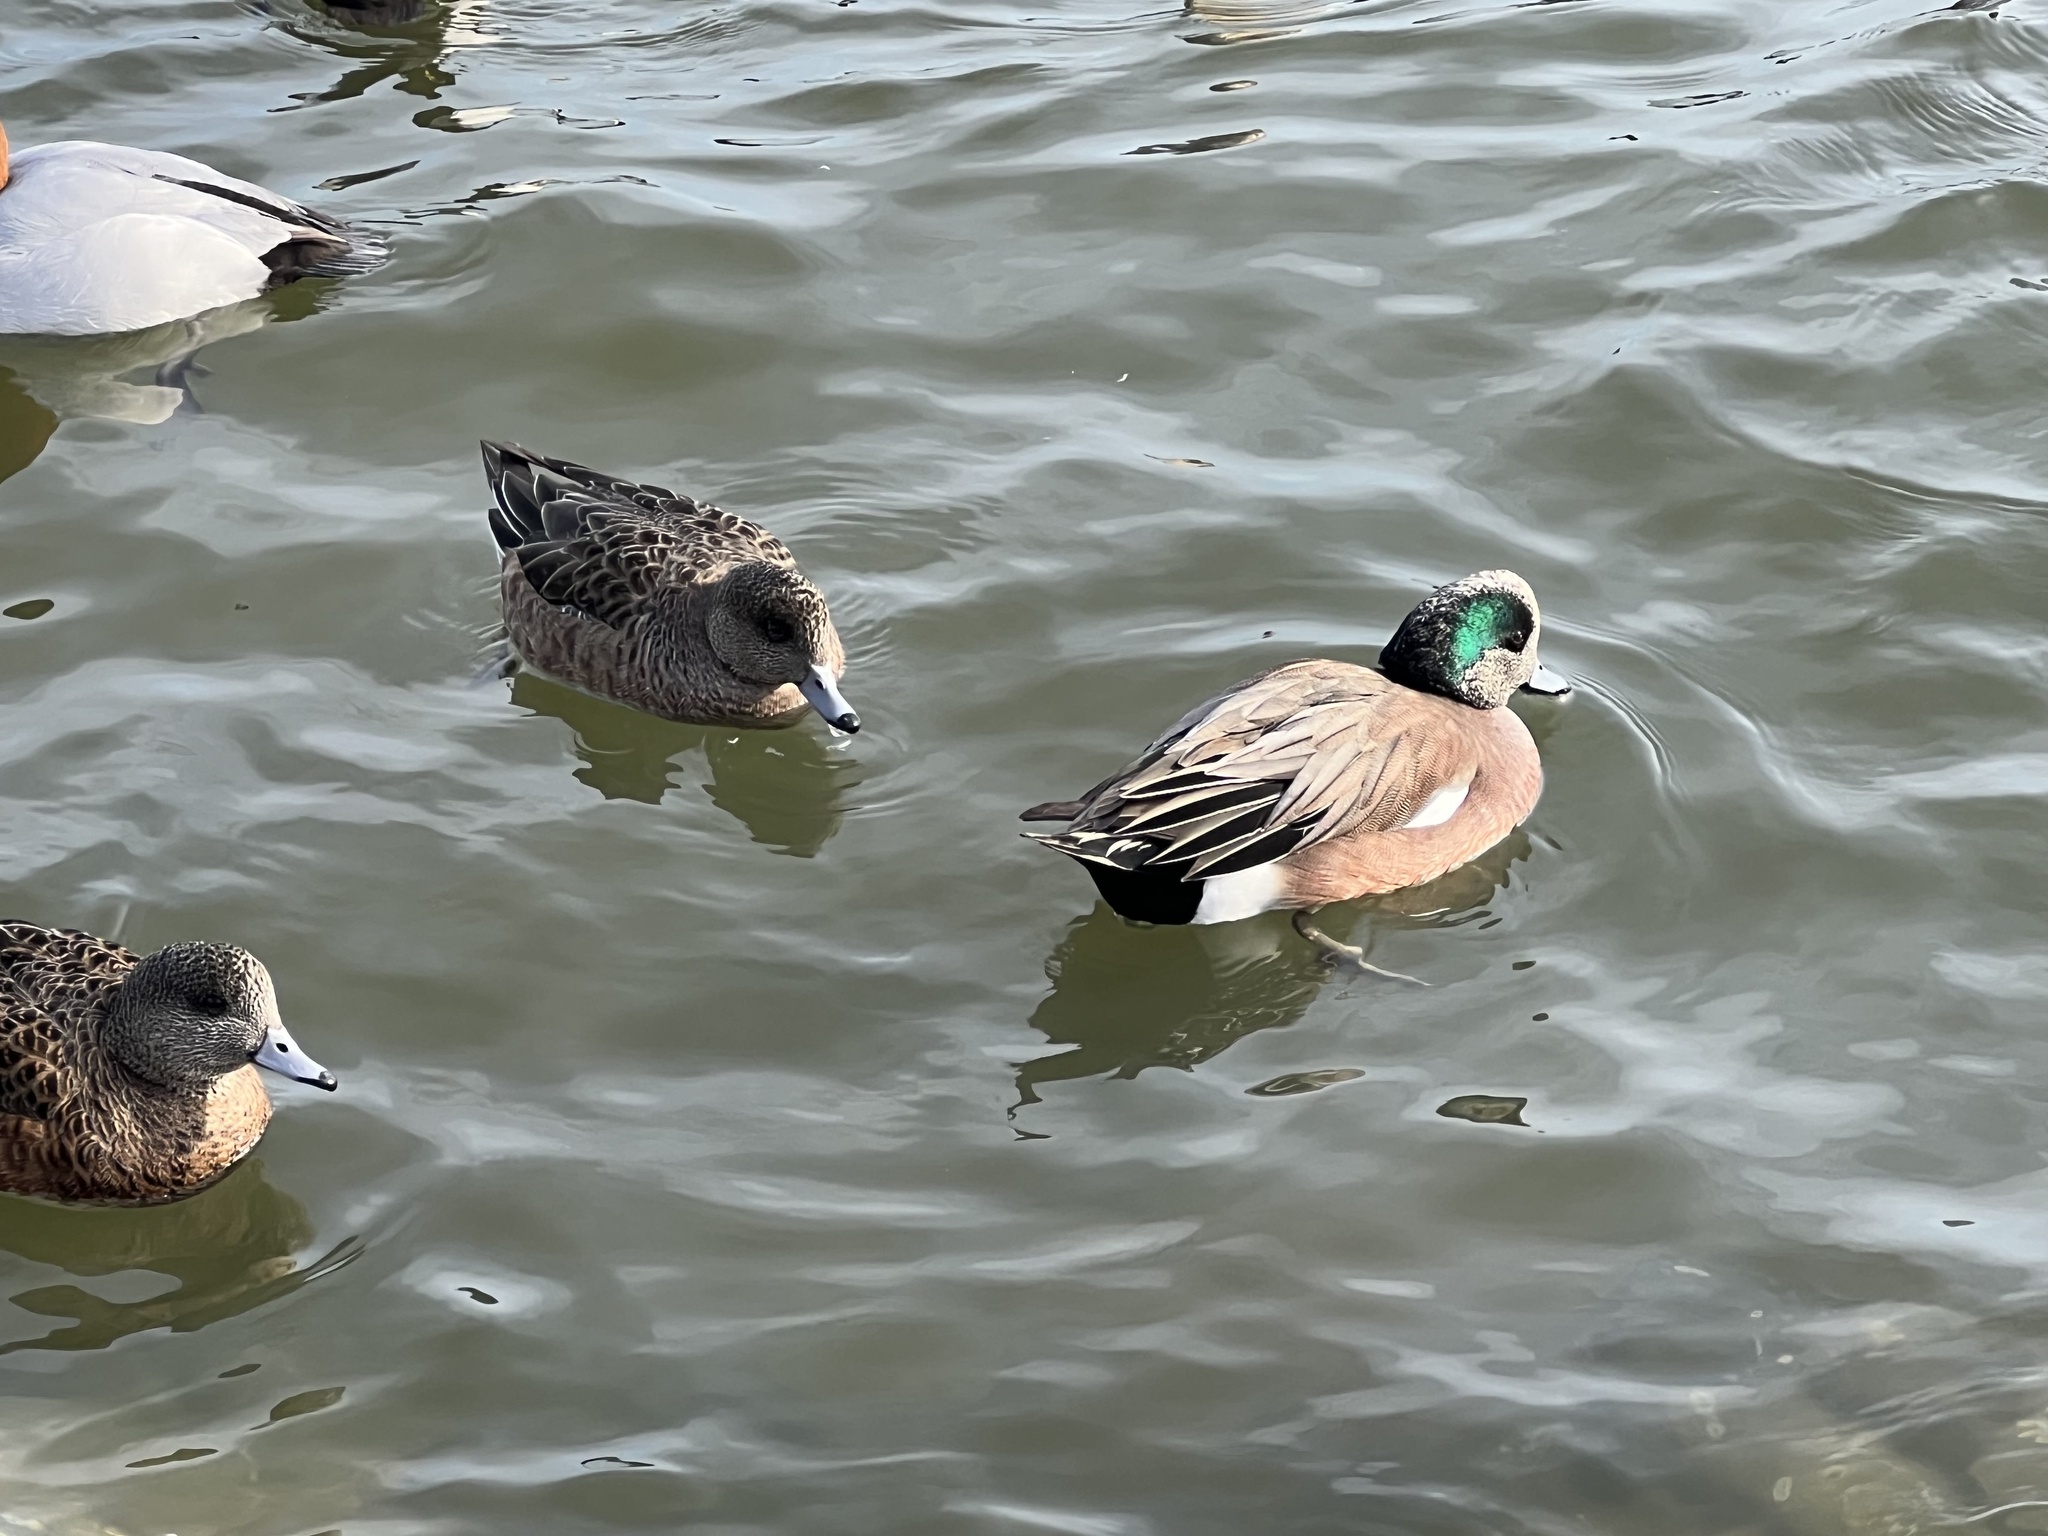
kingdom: Animalia
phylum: Chordata
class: Aves
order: Anseriformes
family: Anatidae
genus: Mareca
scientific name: Mareca americana
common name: American wigeon
